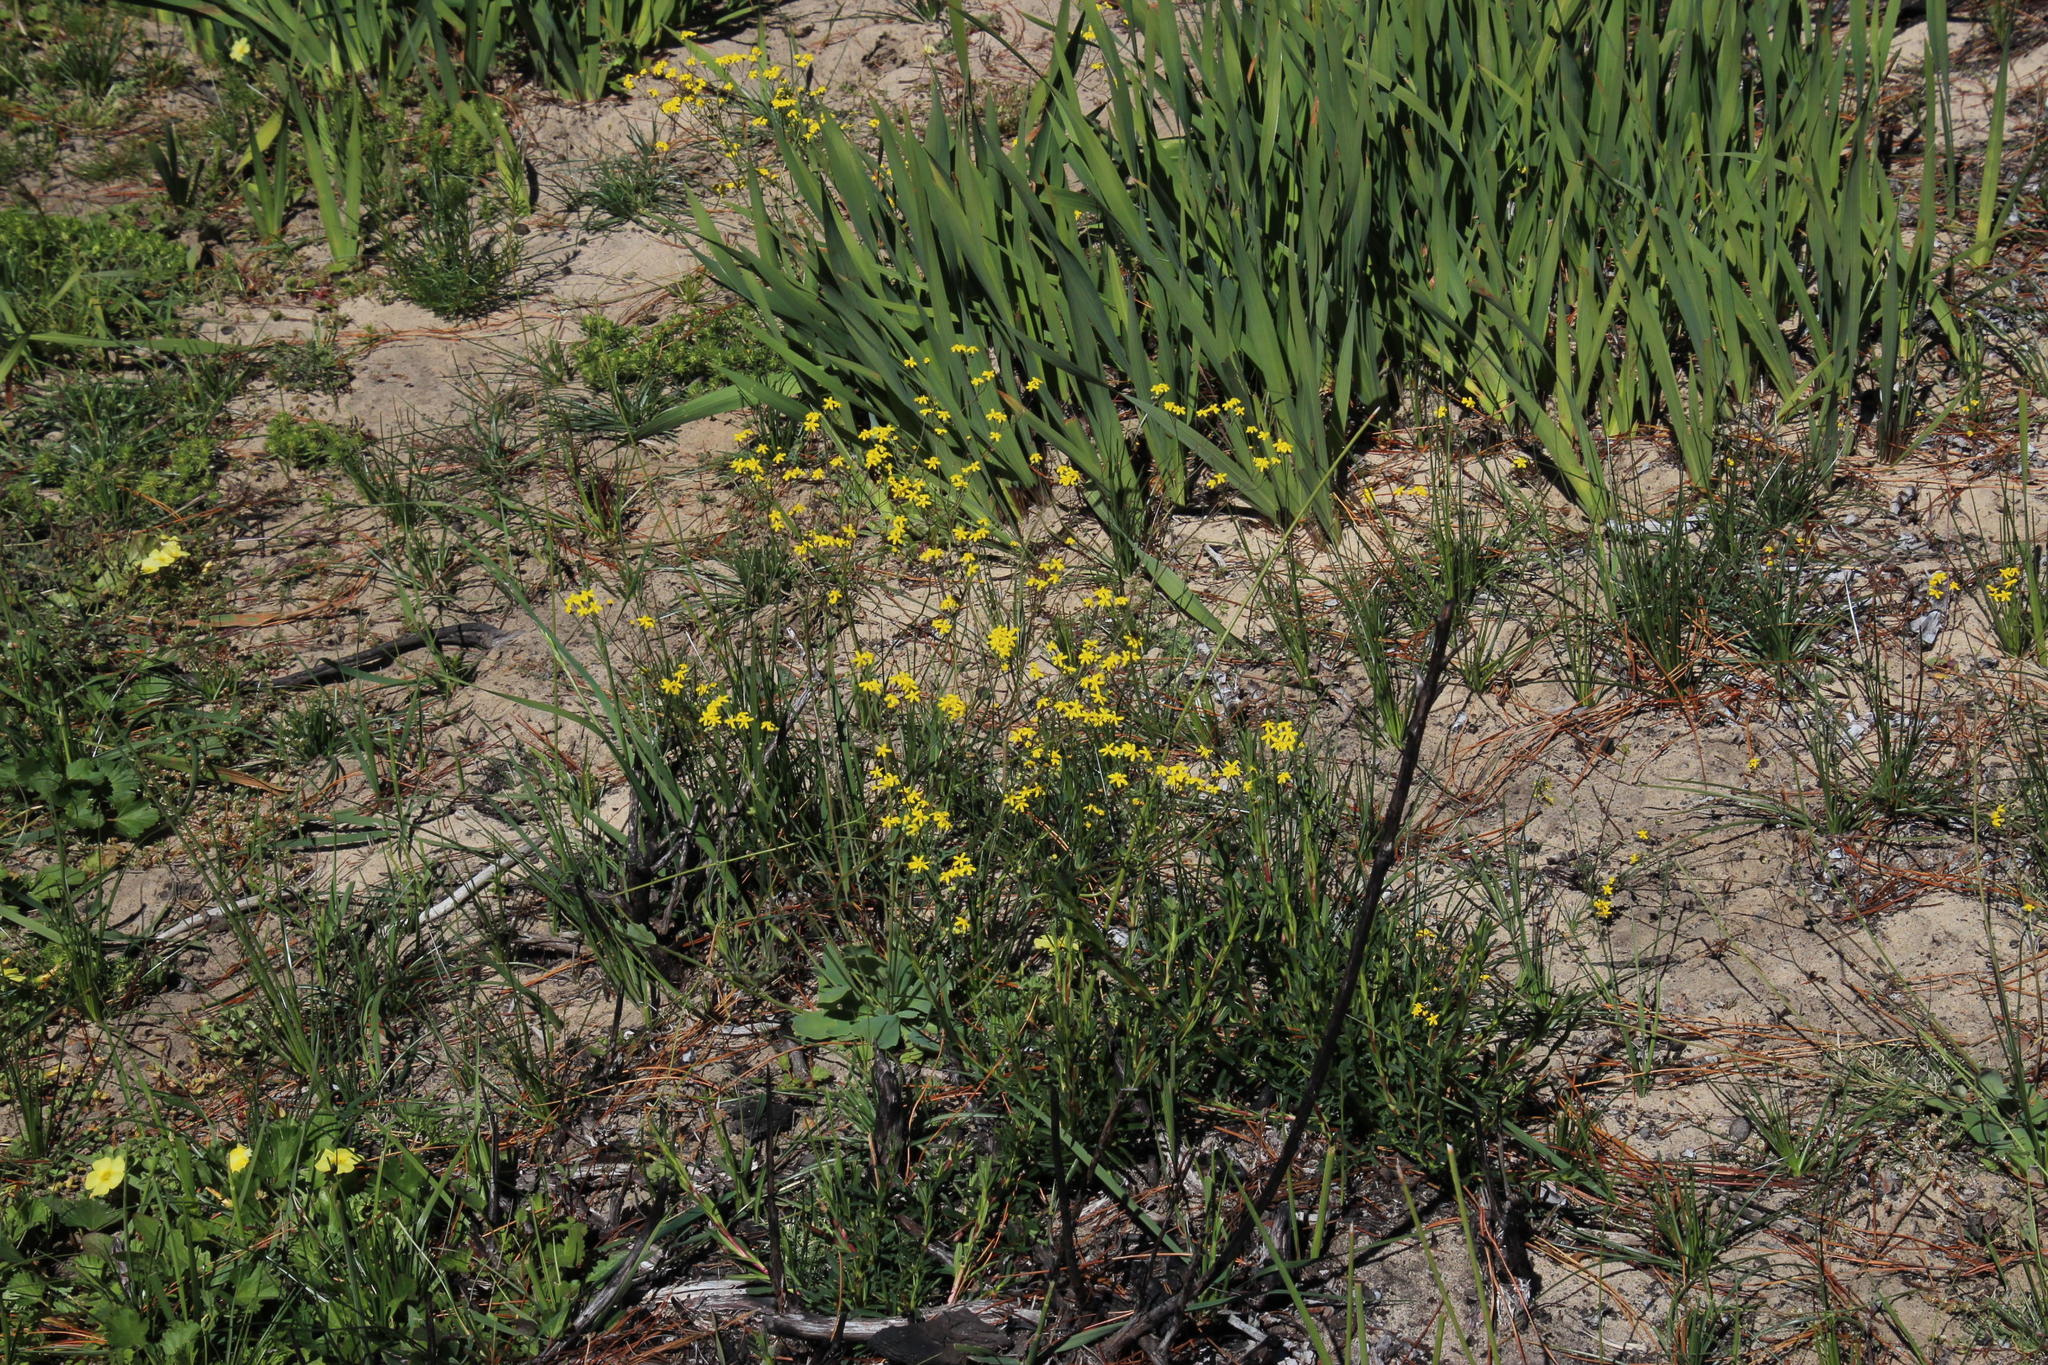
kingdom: Plantae
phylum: Tracheophyta
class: Magnoliopsida
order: Asterales
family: Asteraceae
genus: Gymnodiscus
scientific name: Gymnodiscus capillaris
